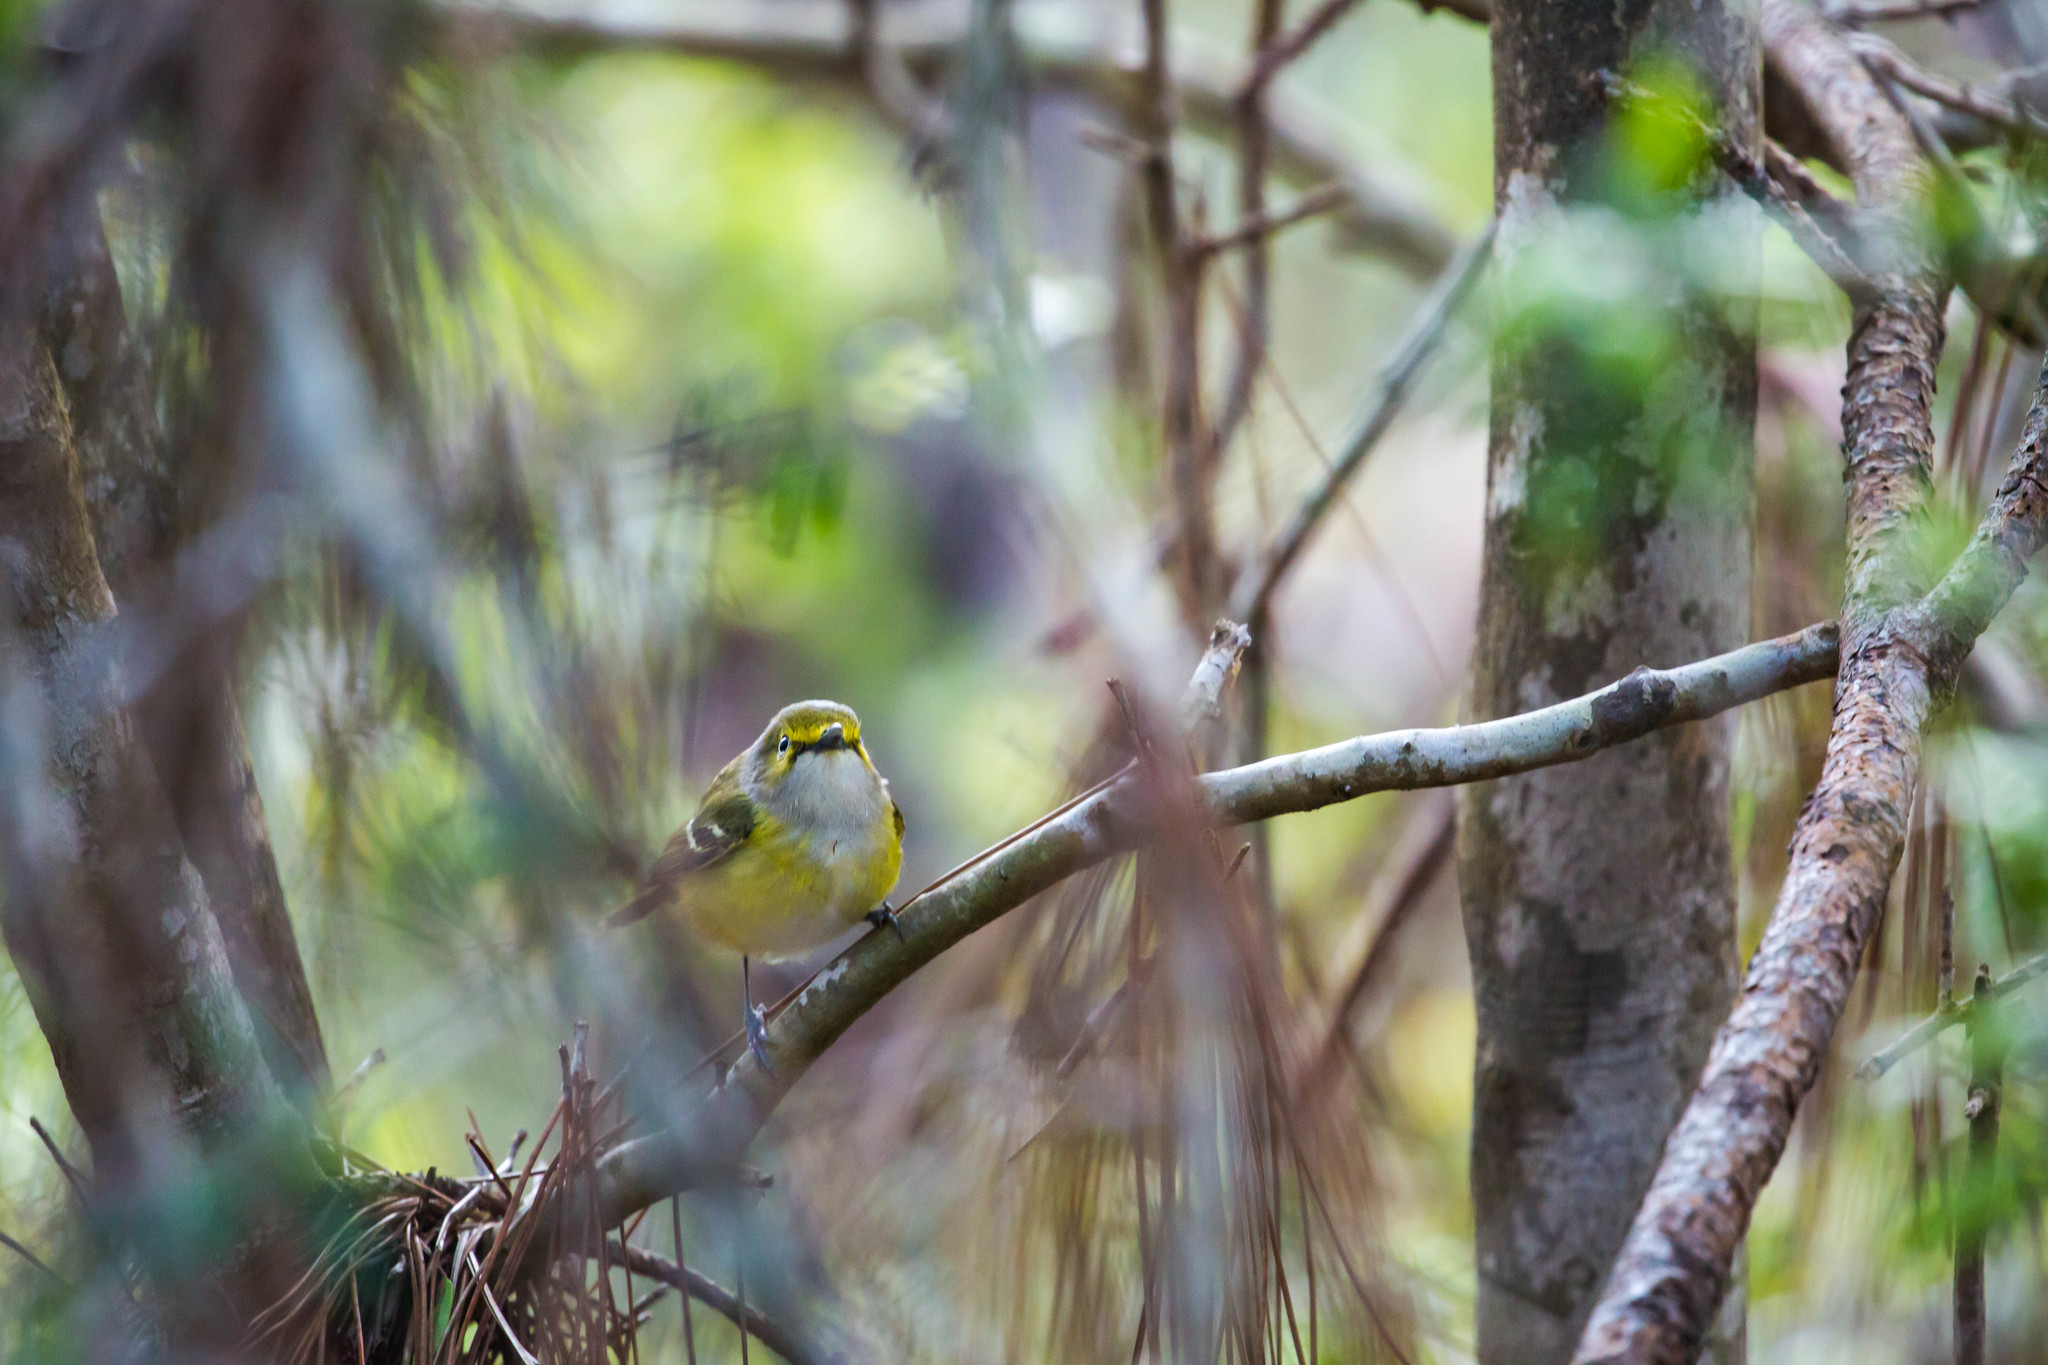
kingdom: Animalia
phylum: Chordata
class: Aves
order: Passeriformes
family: Vireonidae
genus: Vireo
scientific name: Vireo griseus
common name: White-eyed vireo
